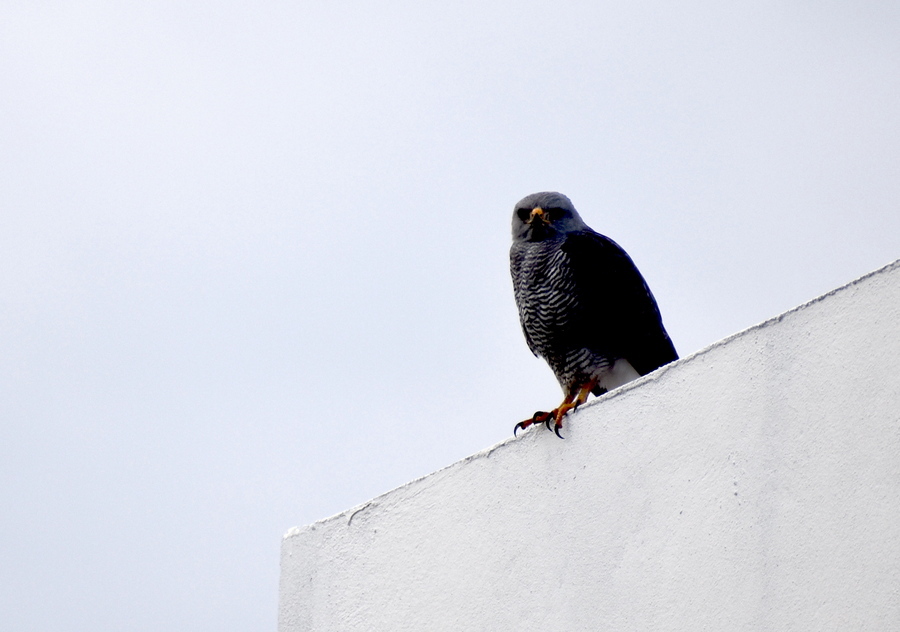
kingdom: Animalia
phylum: Chordata
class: Aves
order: Accipitriformes
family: Accipitridae
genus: Buteo
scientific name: Buteo nitidus
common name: Grey-lined hawk
